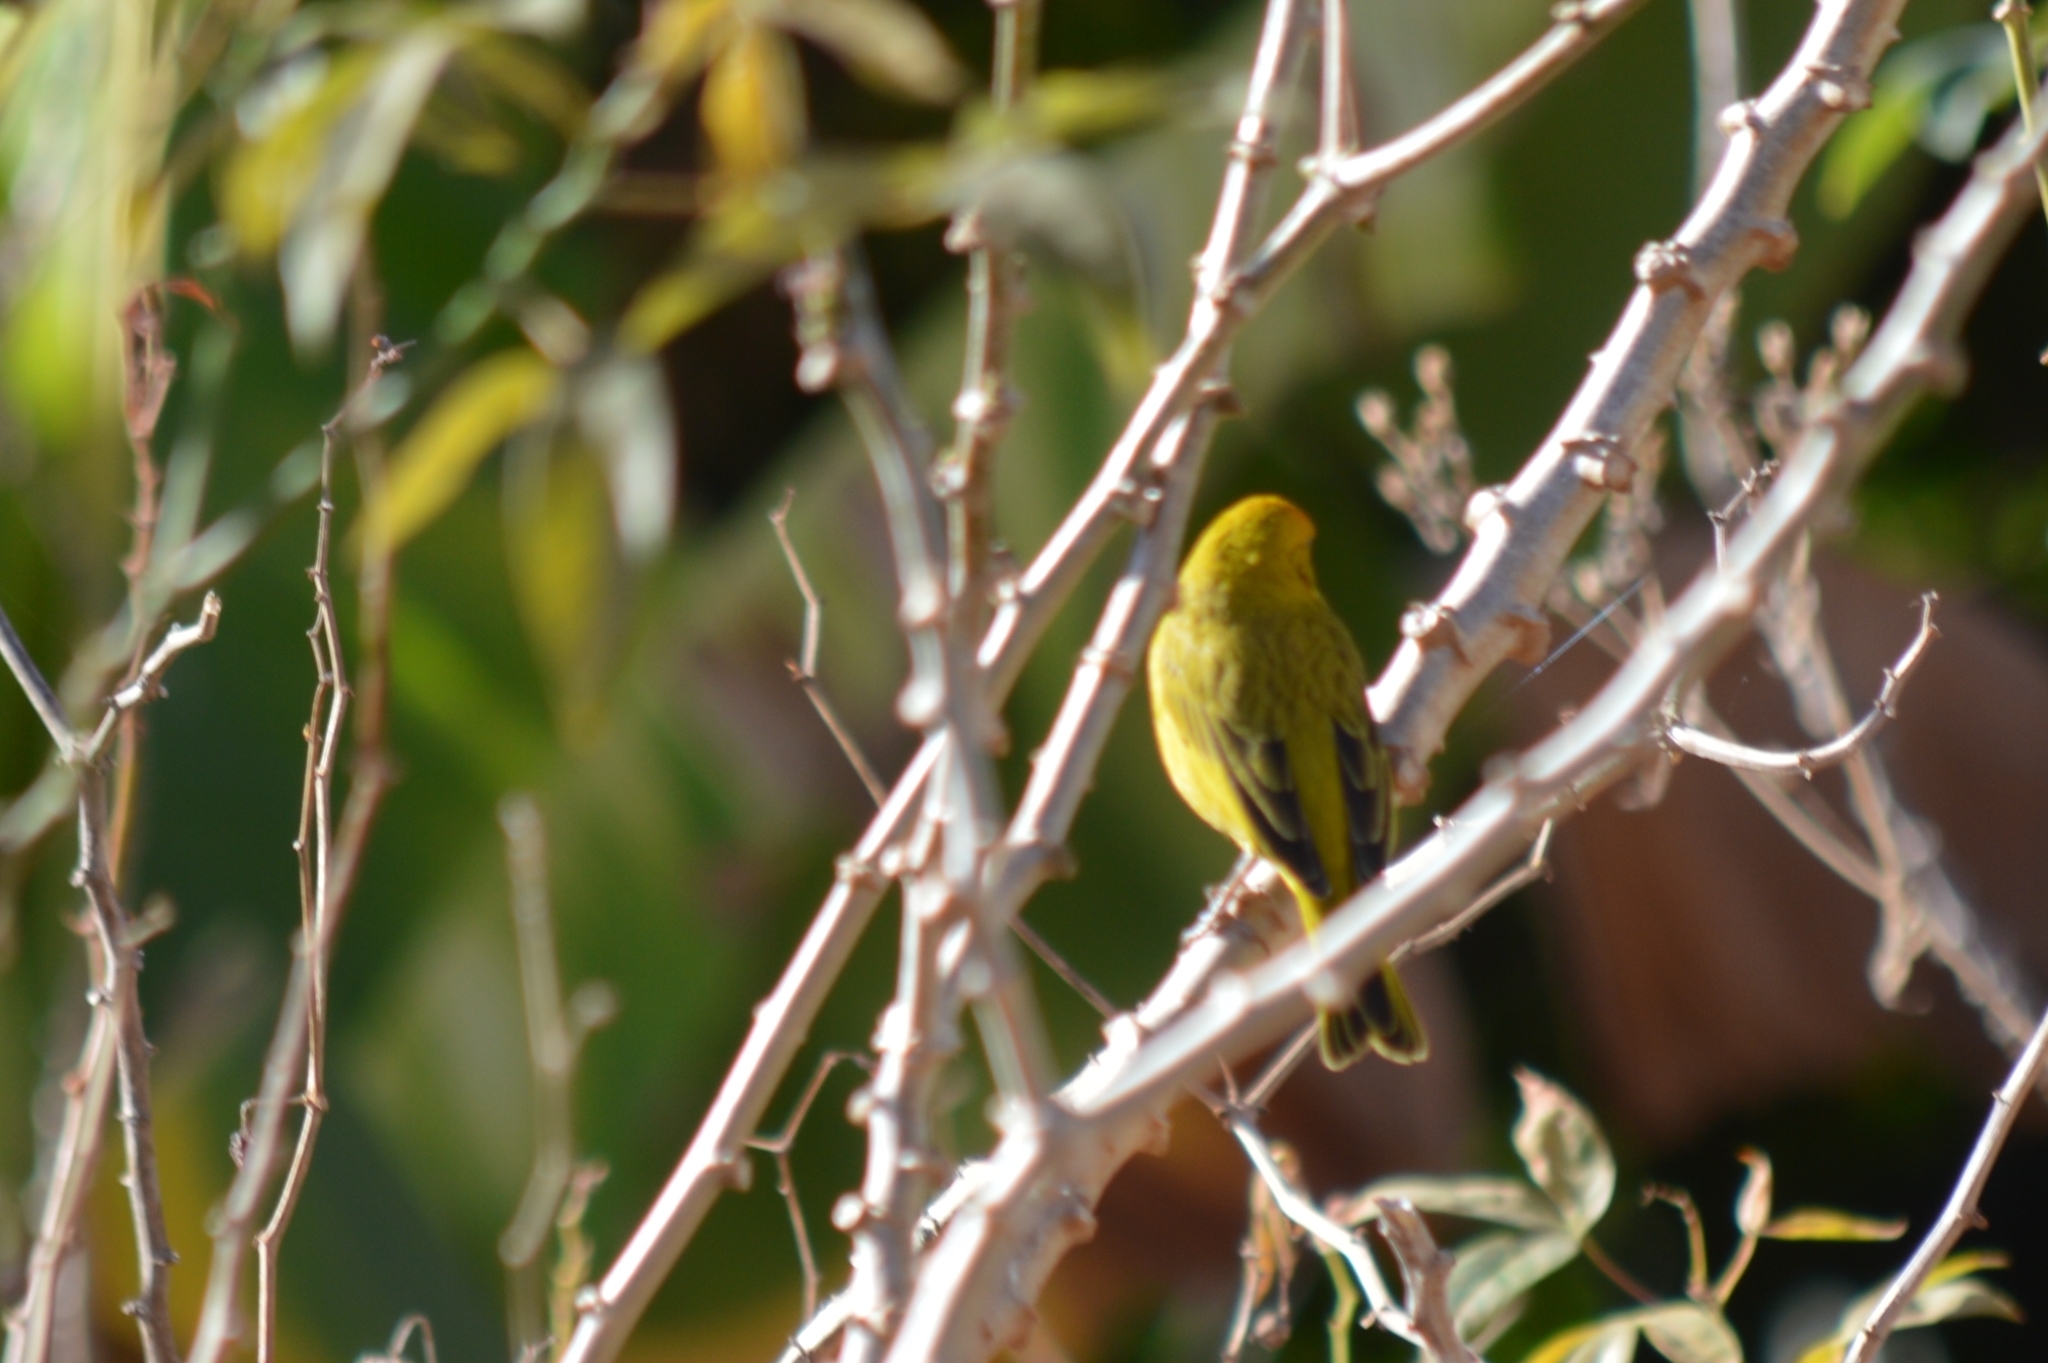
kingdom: Animalia
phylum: Chordata
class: Aves
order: Passeriformes
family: Thraupidae
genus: Sicalis
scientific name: Sicalis flaveola
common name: Saffron finch
